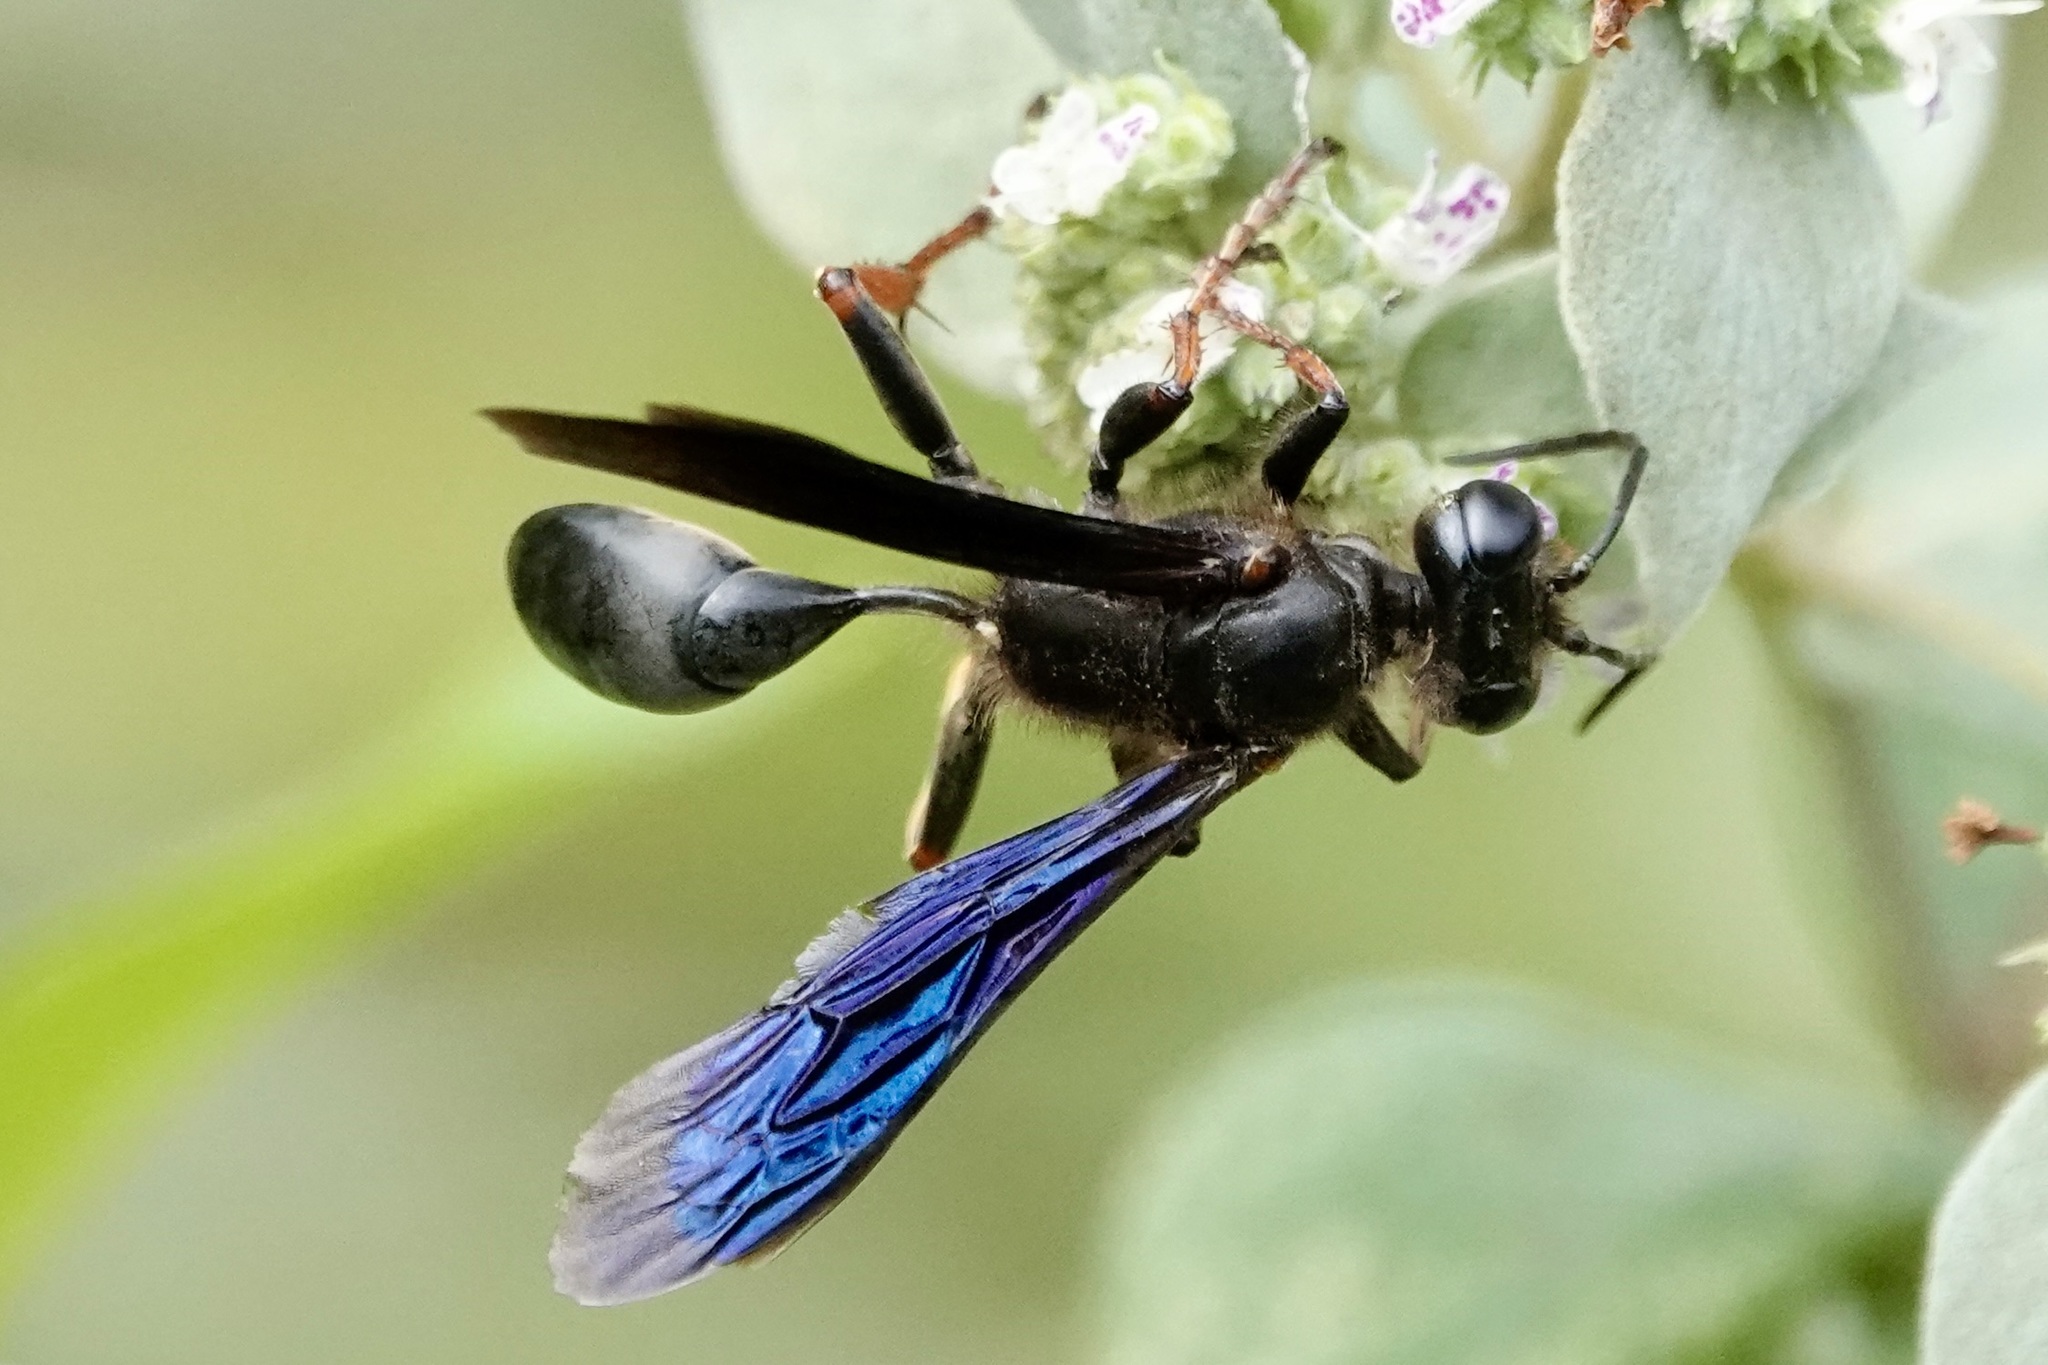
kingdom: Animalia
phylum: Arthropoda
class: Insecta
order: Hymenoptera
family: Sphecidae
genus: Isodontia
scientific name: Isodontia auripes
